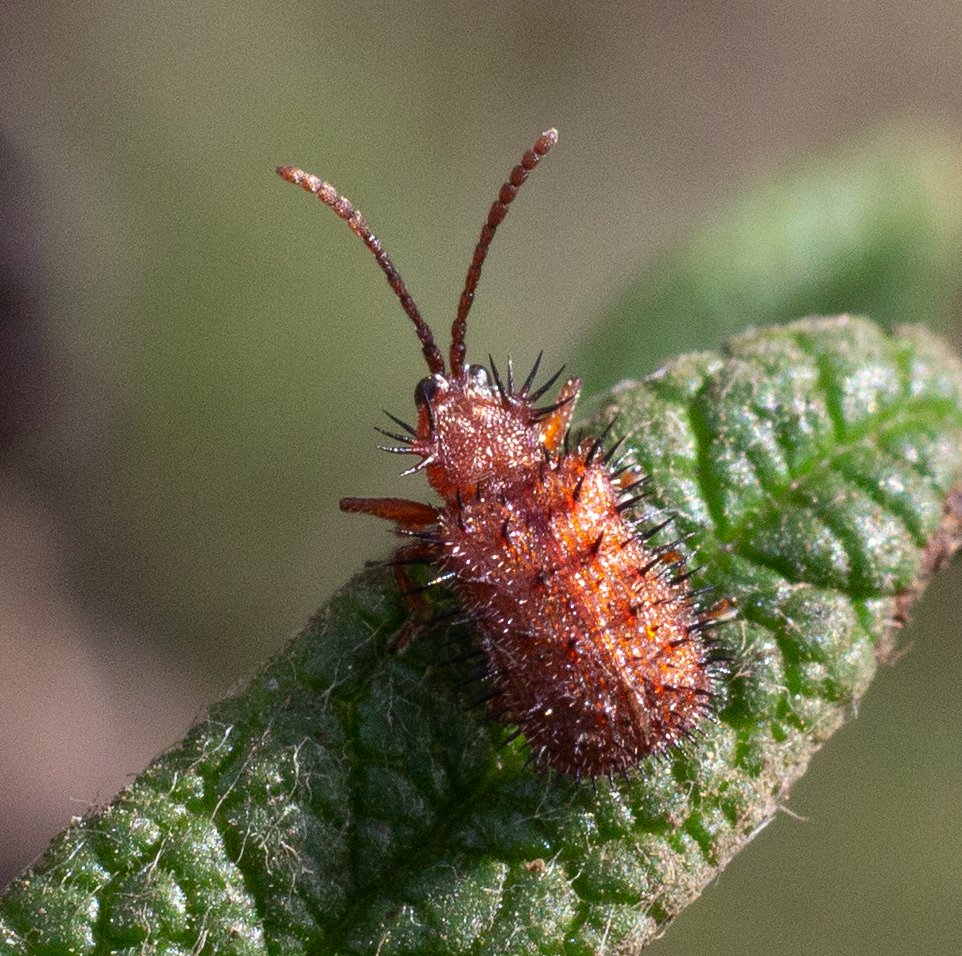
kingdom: Animalia
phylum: Arthropoda
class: Insecta
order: Coleoptera
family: Chrysomelidae
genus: Dicladispa
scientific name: Dicladispa testacea
